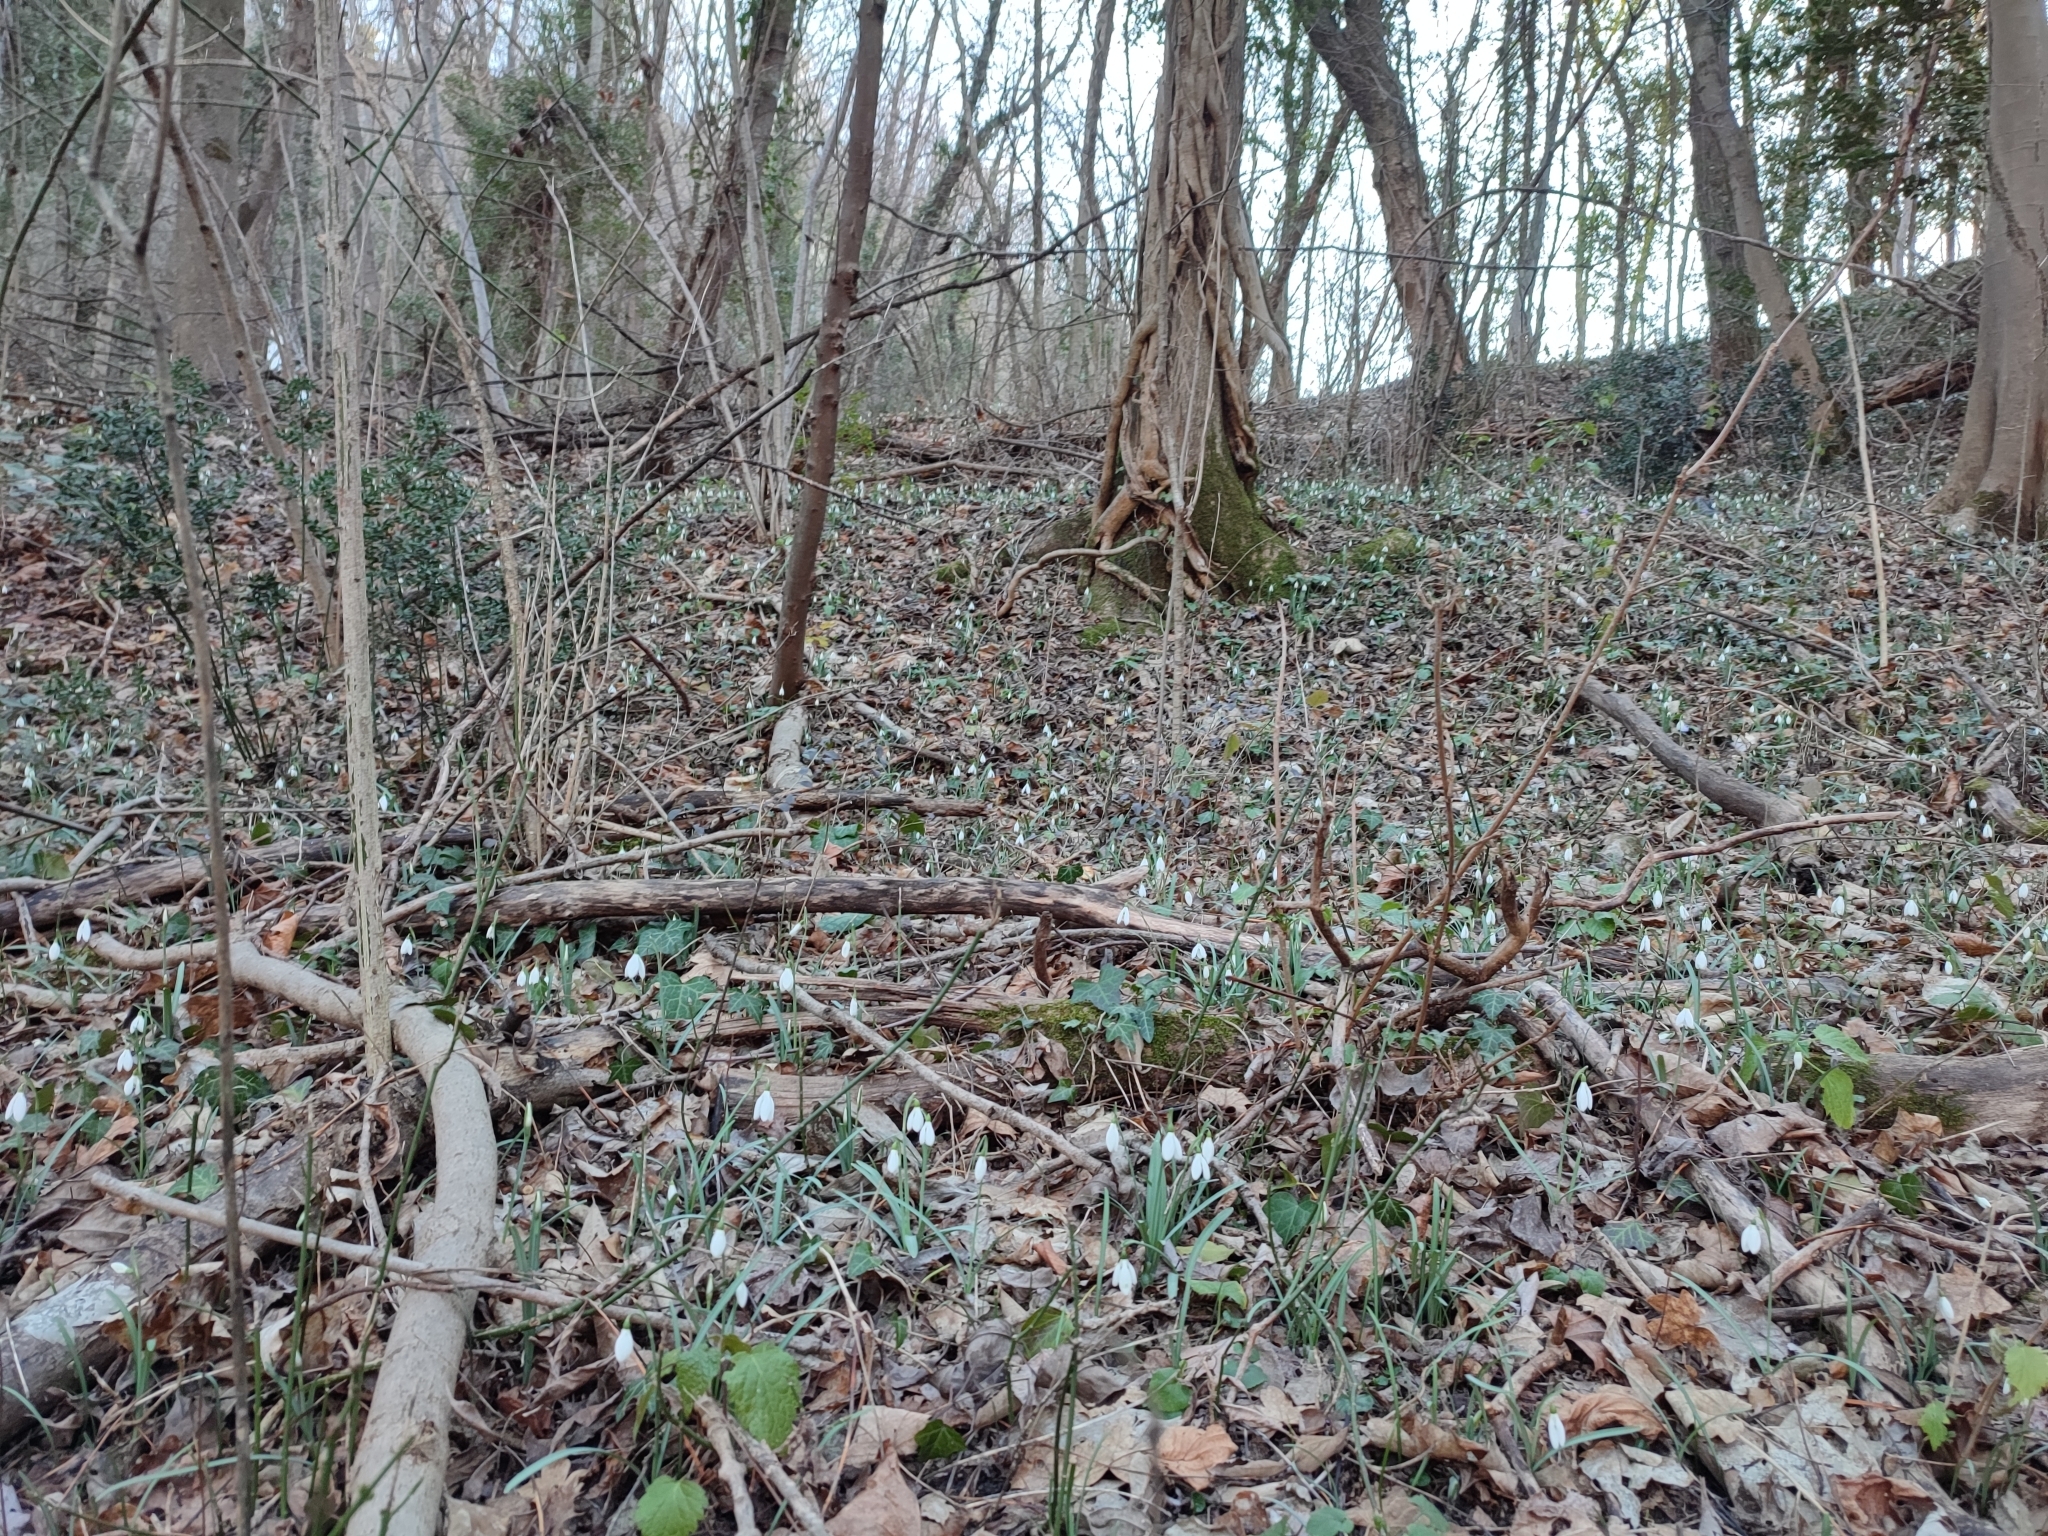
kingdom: Plantae
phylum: Tracheophyta
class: Liliopsida
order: Asparagales
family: Amaryllidaceae
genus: Galanthus
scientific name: Galanthus nivalis
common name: Snowdrop
